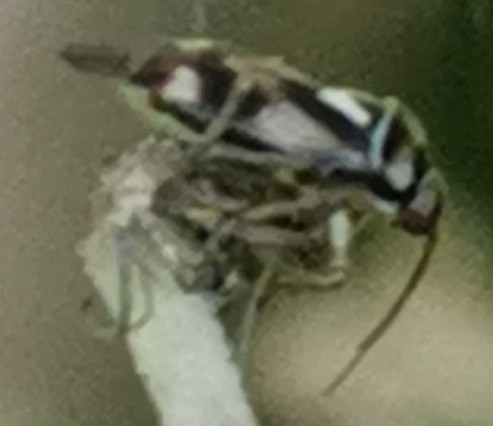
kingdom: Animalia
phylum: Arthropoda
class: Insecta
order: Hemiptera
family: Miridae
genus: Orthops
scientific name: Orthops kalmii
